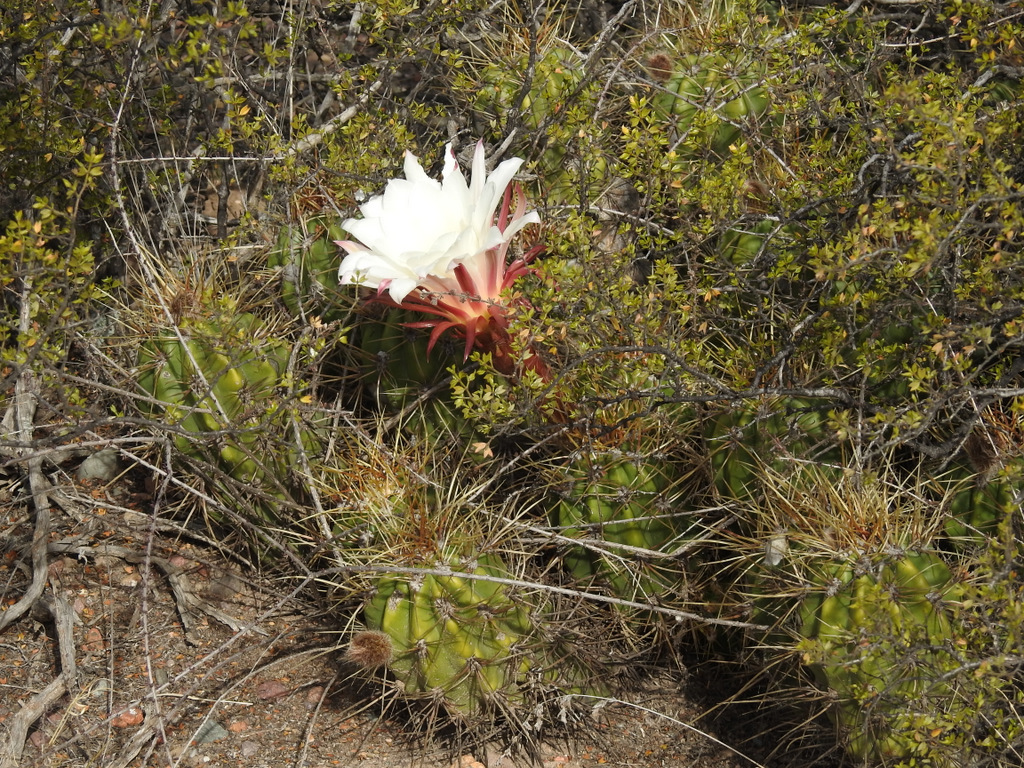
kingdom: Plantae
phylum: Tracheophyta
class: Magnoliopsida
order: Caryophyllales
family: Cactaceae
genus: Soehrensia
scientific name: Soehrensia candicans
